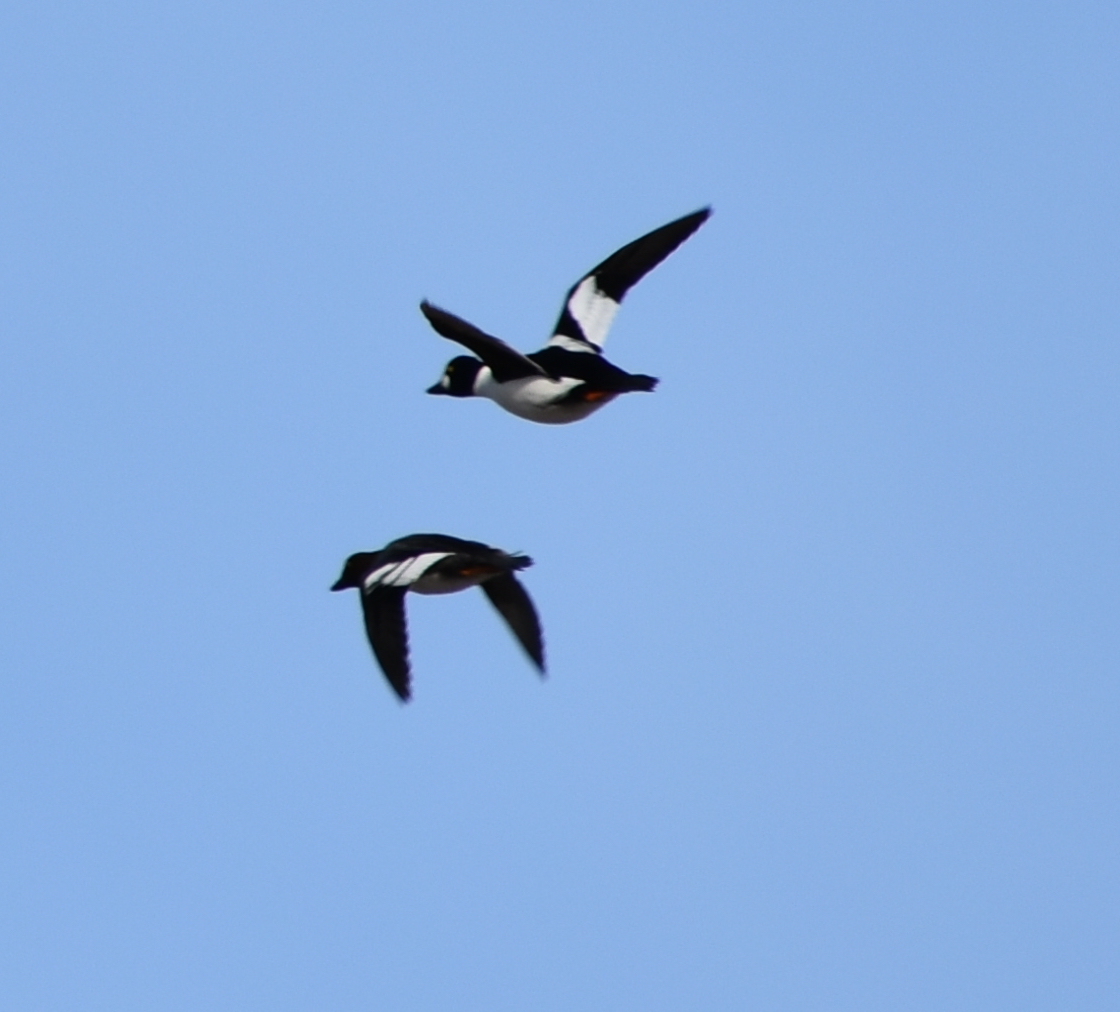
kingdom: Animalia
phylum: Chordata
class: Aves
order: Anseriformes
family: Anatidae
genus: Bucephala
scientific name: Bucephala clangula
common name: Common goldeneye
